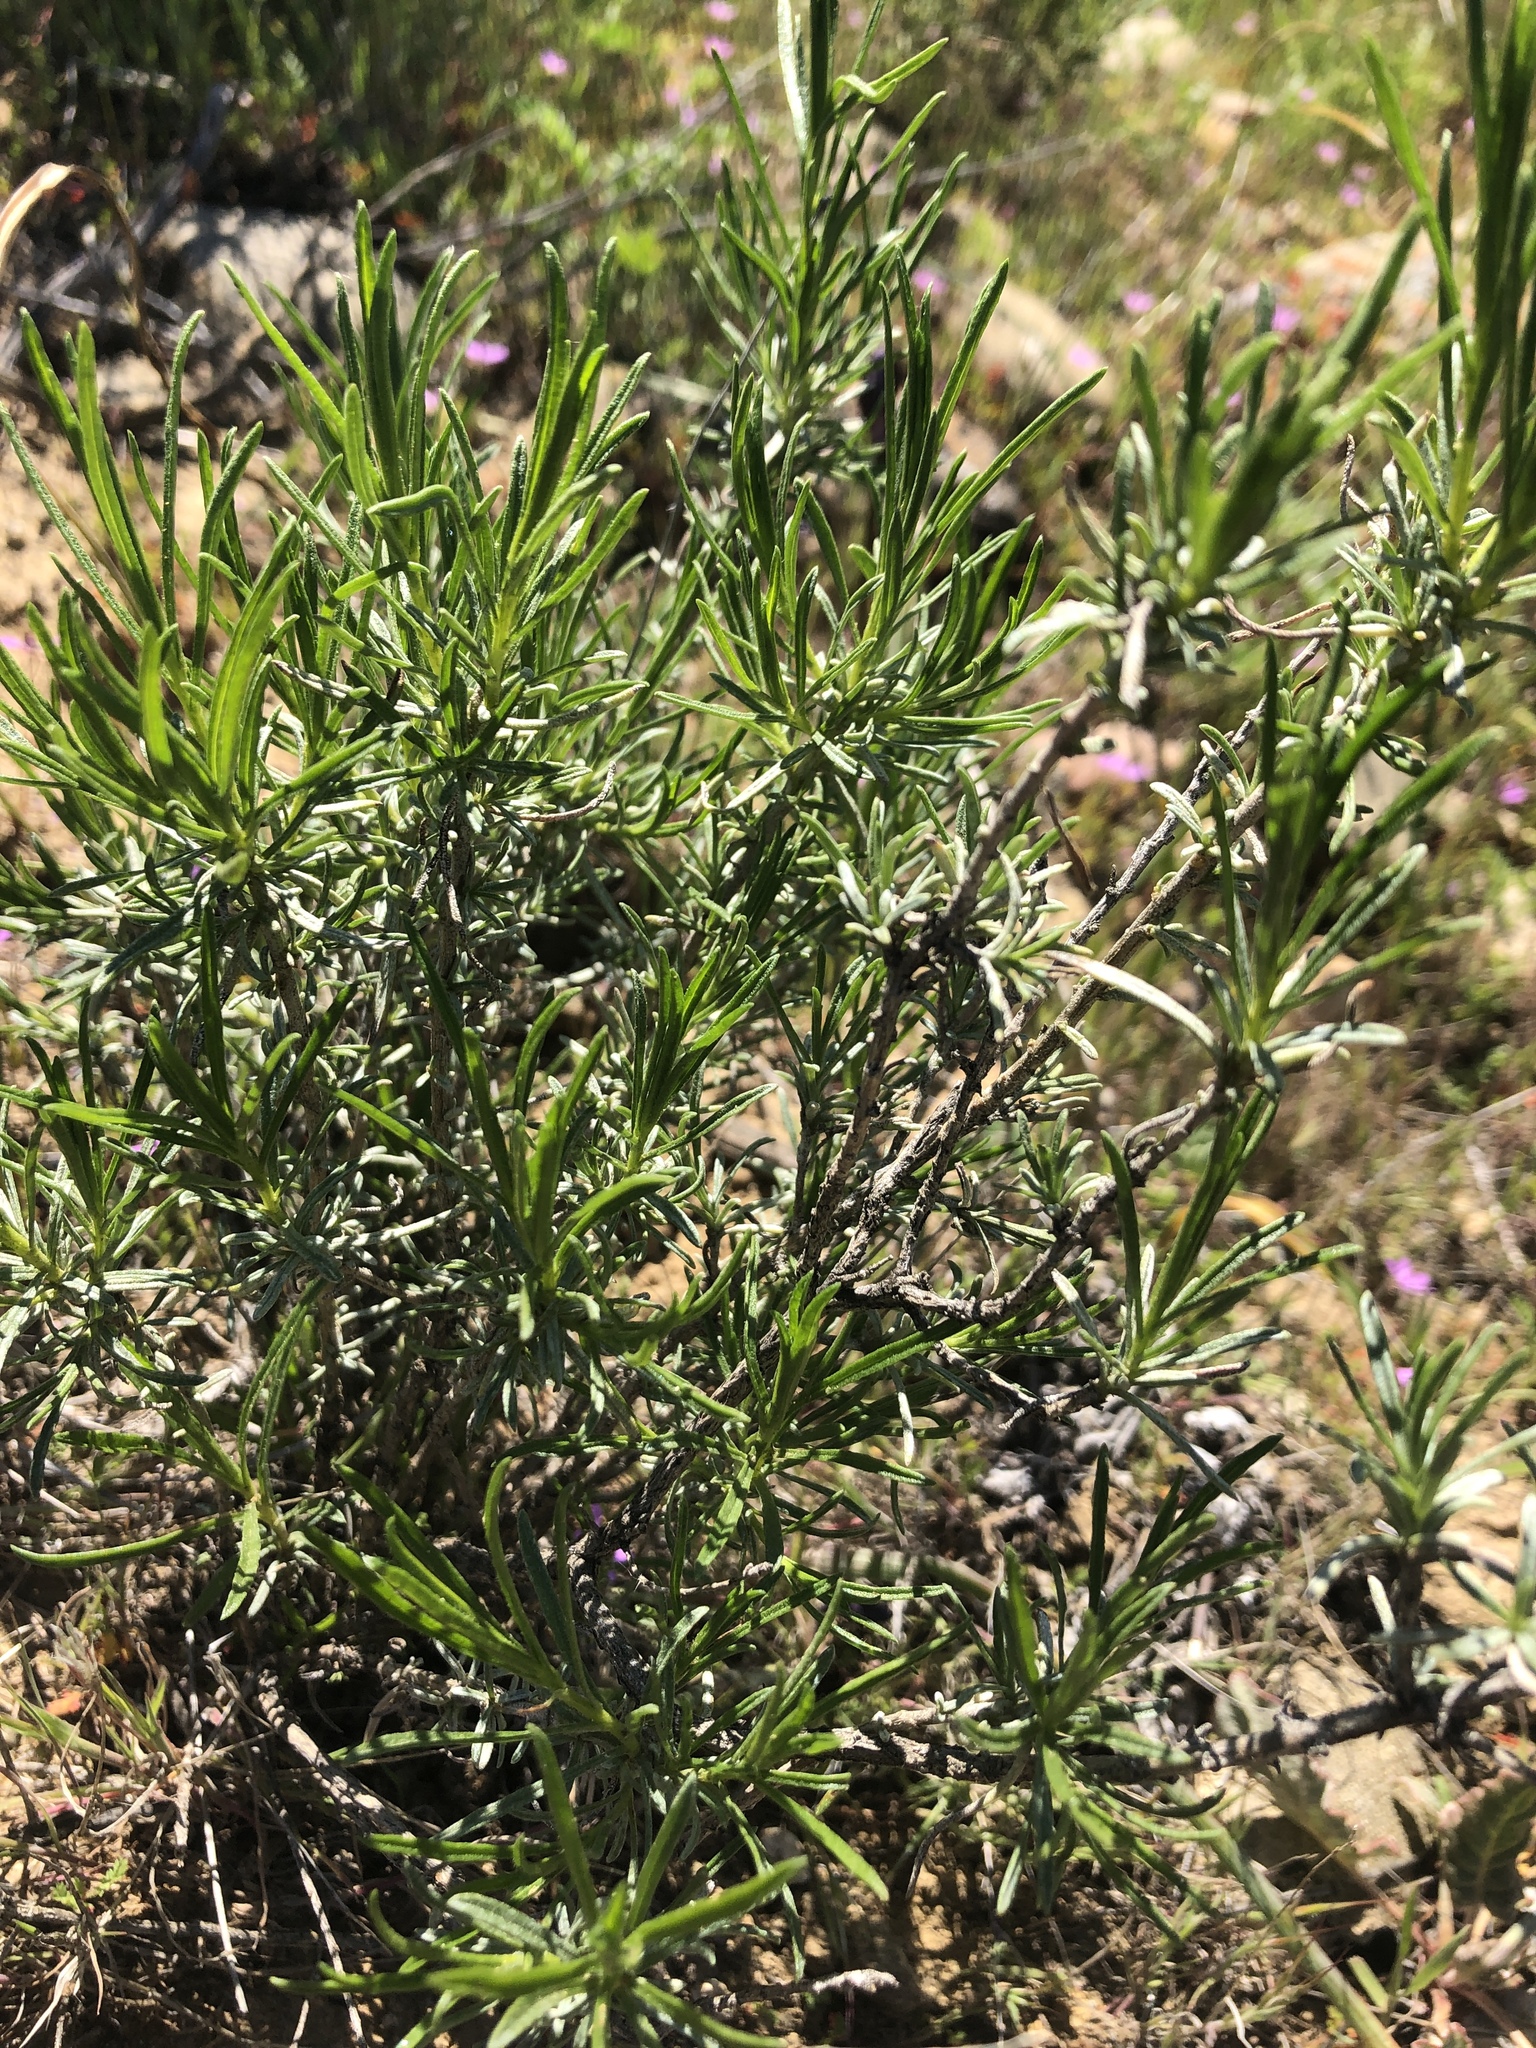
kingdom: Plantae
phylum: Tracheophyta
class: Magnoliopsida
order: Asterales
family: Asteraceae
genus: Ericameria
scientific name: Ericameria linearifolia
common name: Interior goldenbush
